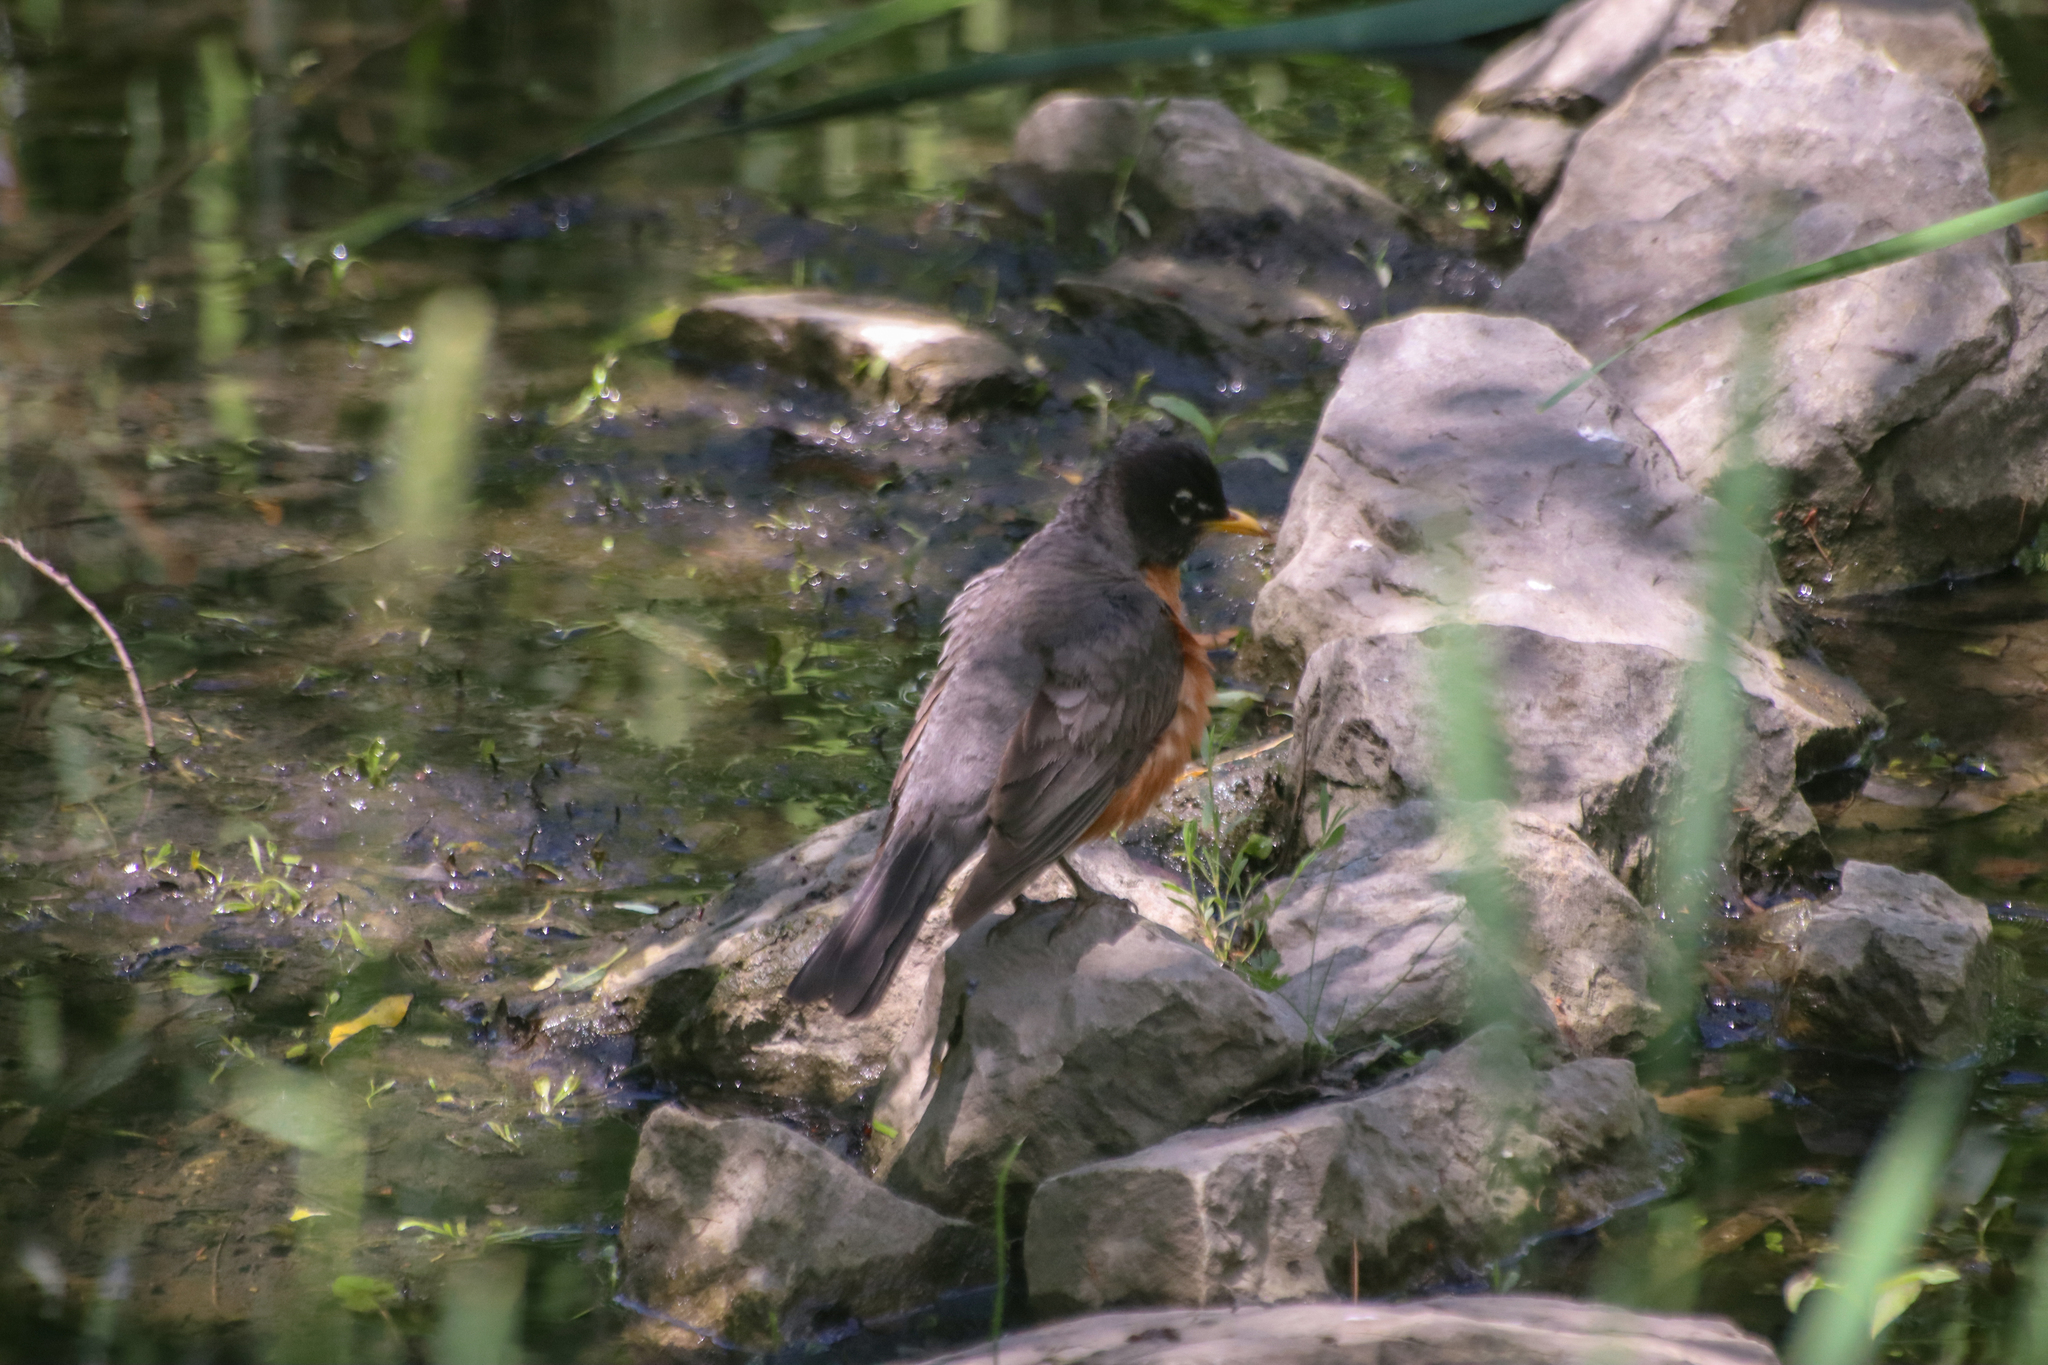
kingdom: Animalia
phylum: Chordata
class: Aves
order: Passeriformes
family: Turdidae
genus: Turdus
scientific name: Turdus migratorius
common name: American robin
